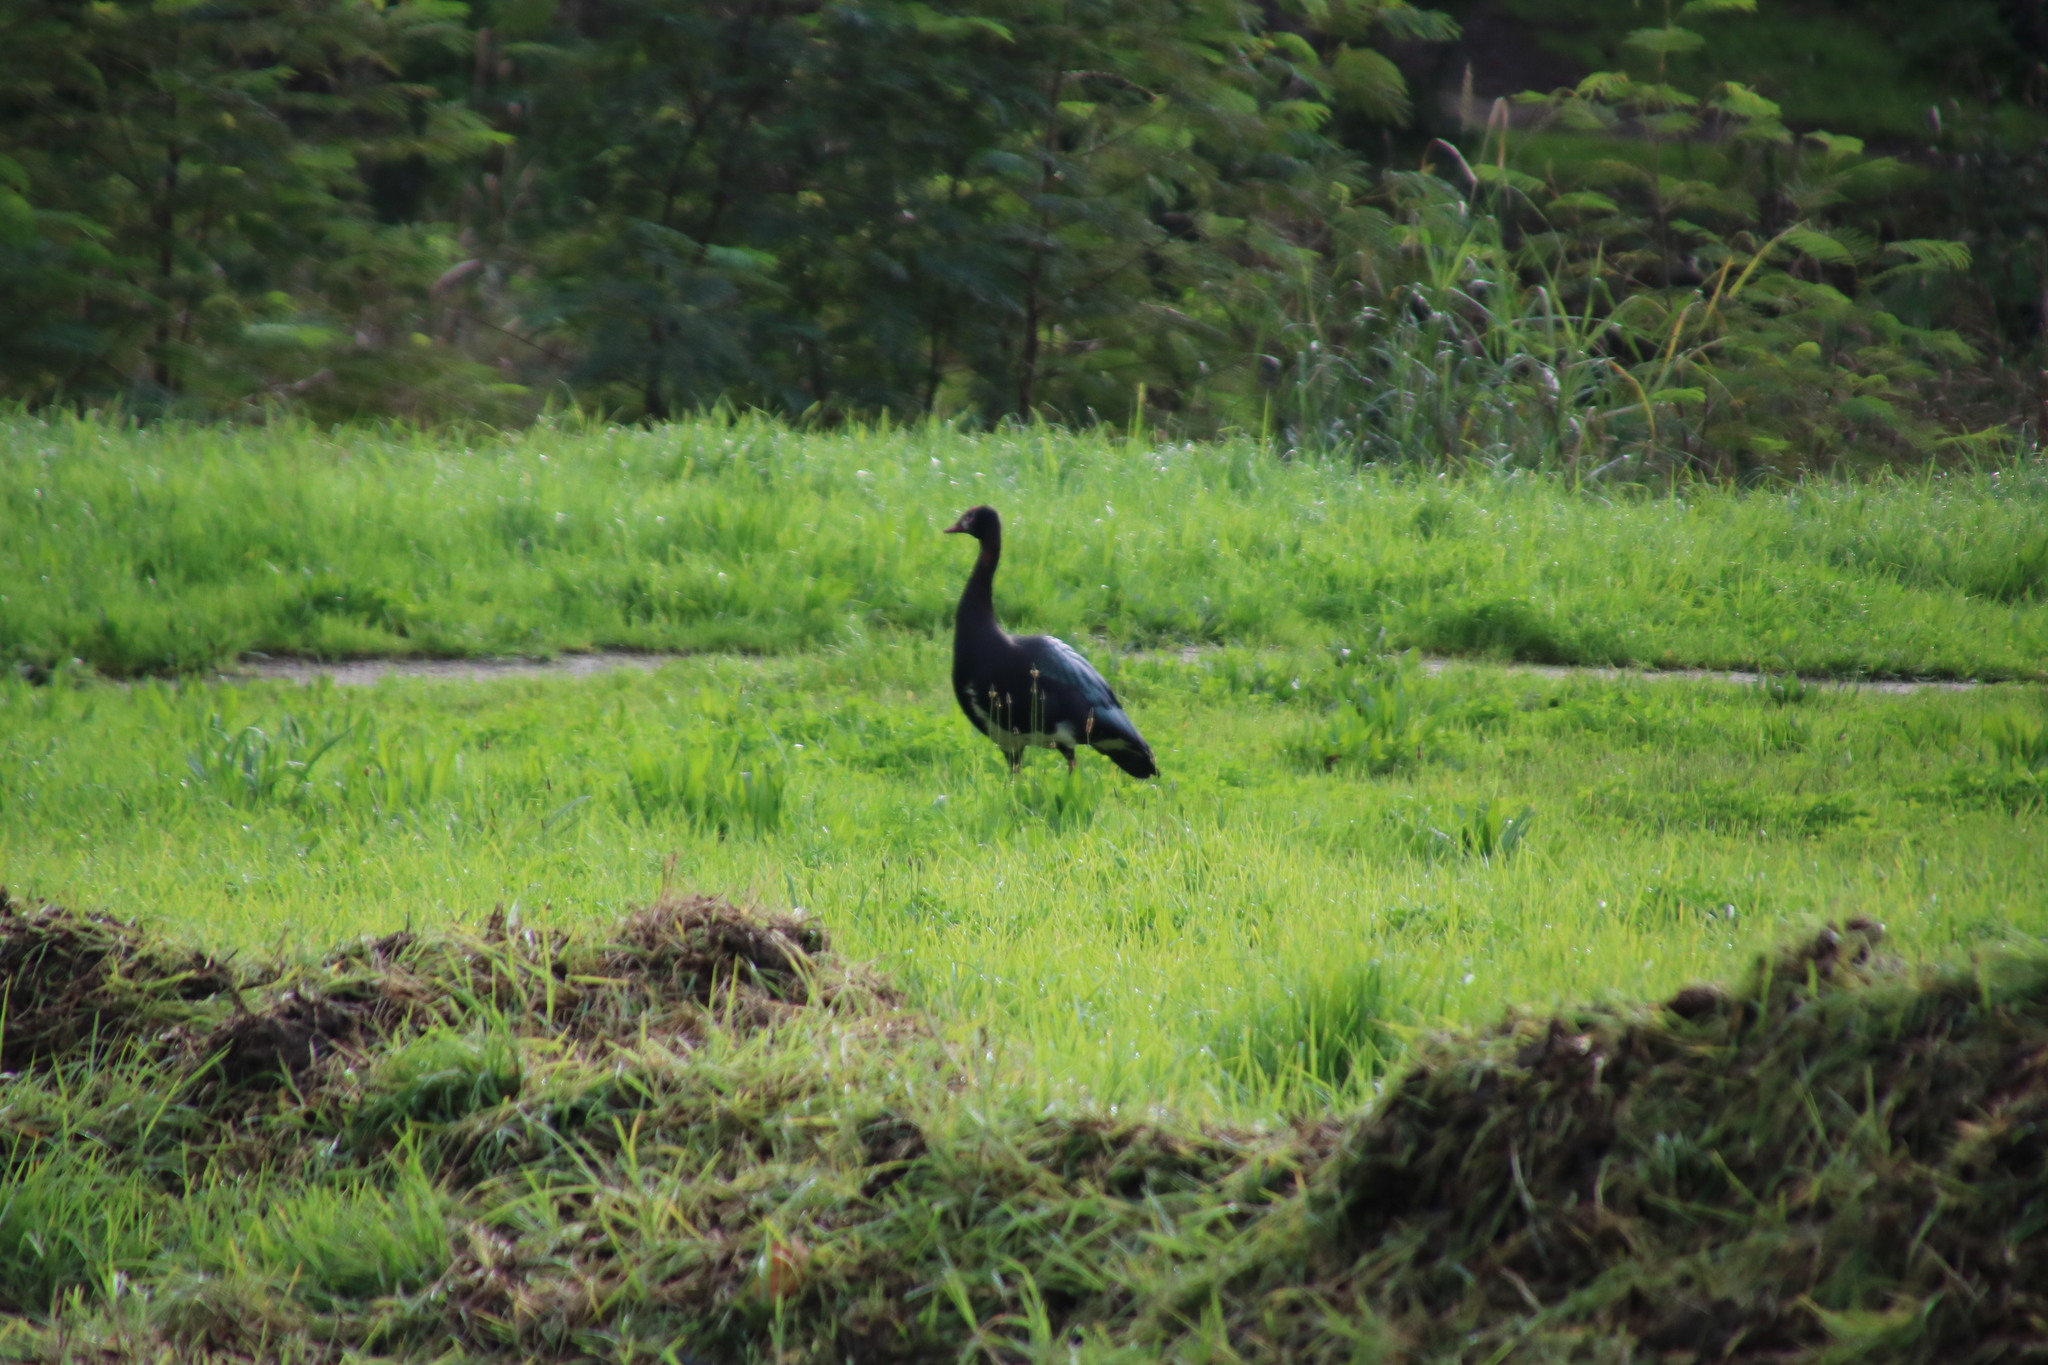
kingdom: Animalia
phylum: Chordata
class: Aves
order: Anseriformes
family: Anatidae
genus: Plectropterus
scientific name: Plectropterus gambensis
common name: Spur-winged goose
